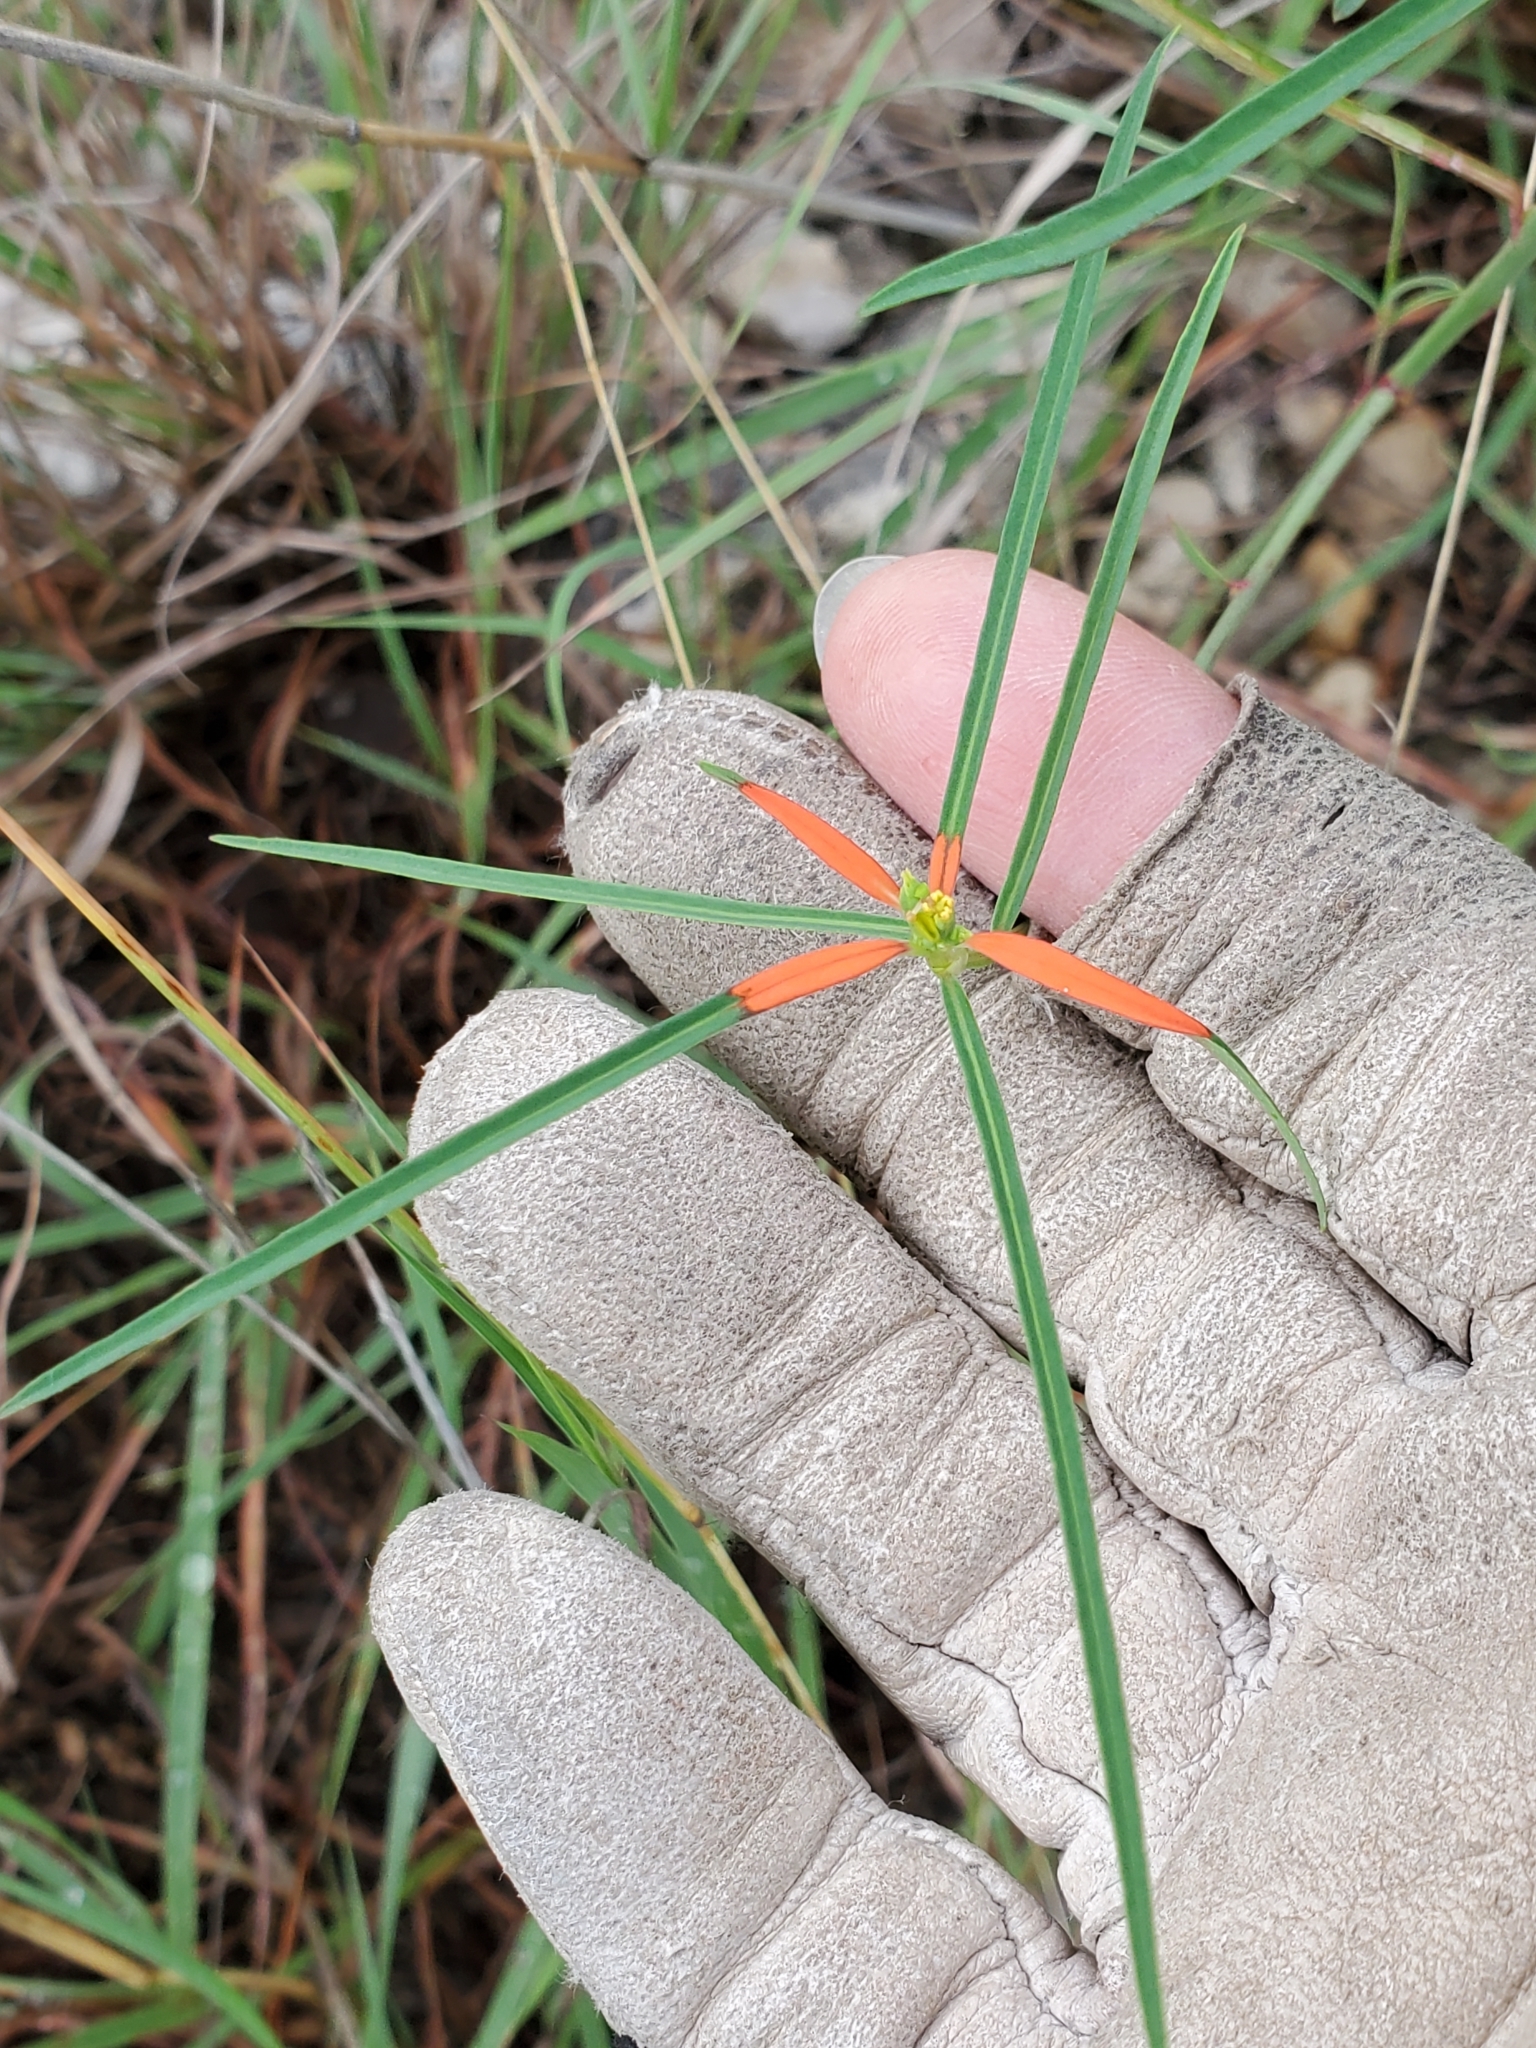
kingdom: Plantae
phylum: Tracheophyta
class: Magnoliopsida
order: Malpighiales
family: Euphorbiaceae
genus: Euphorbia
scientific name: Euphorbia heterophylla
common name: Mexican fireplant
